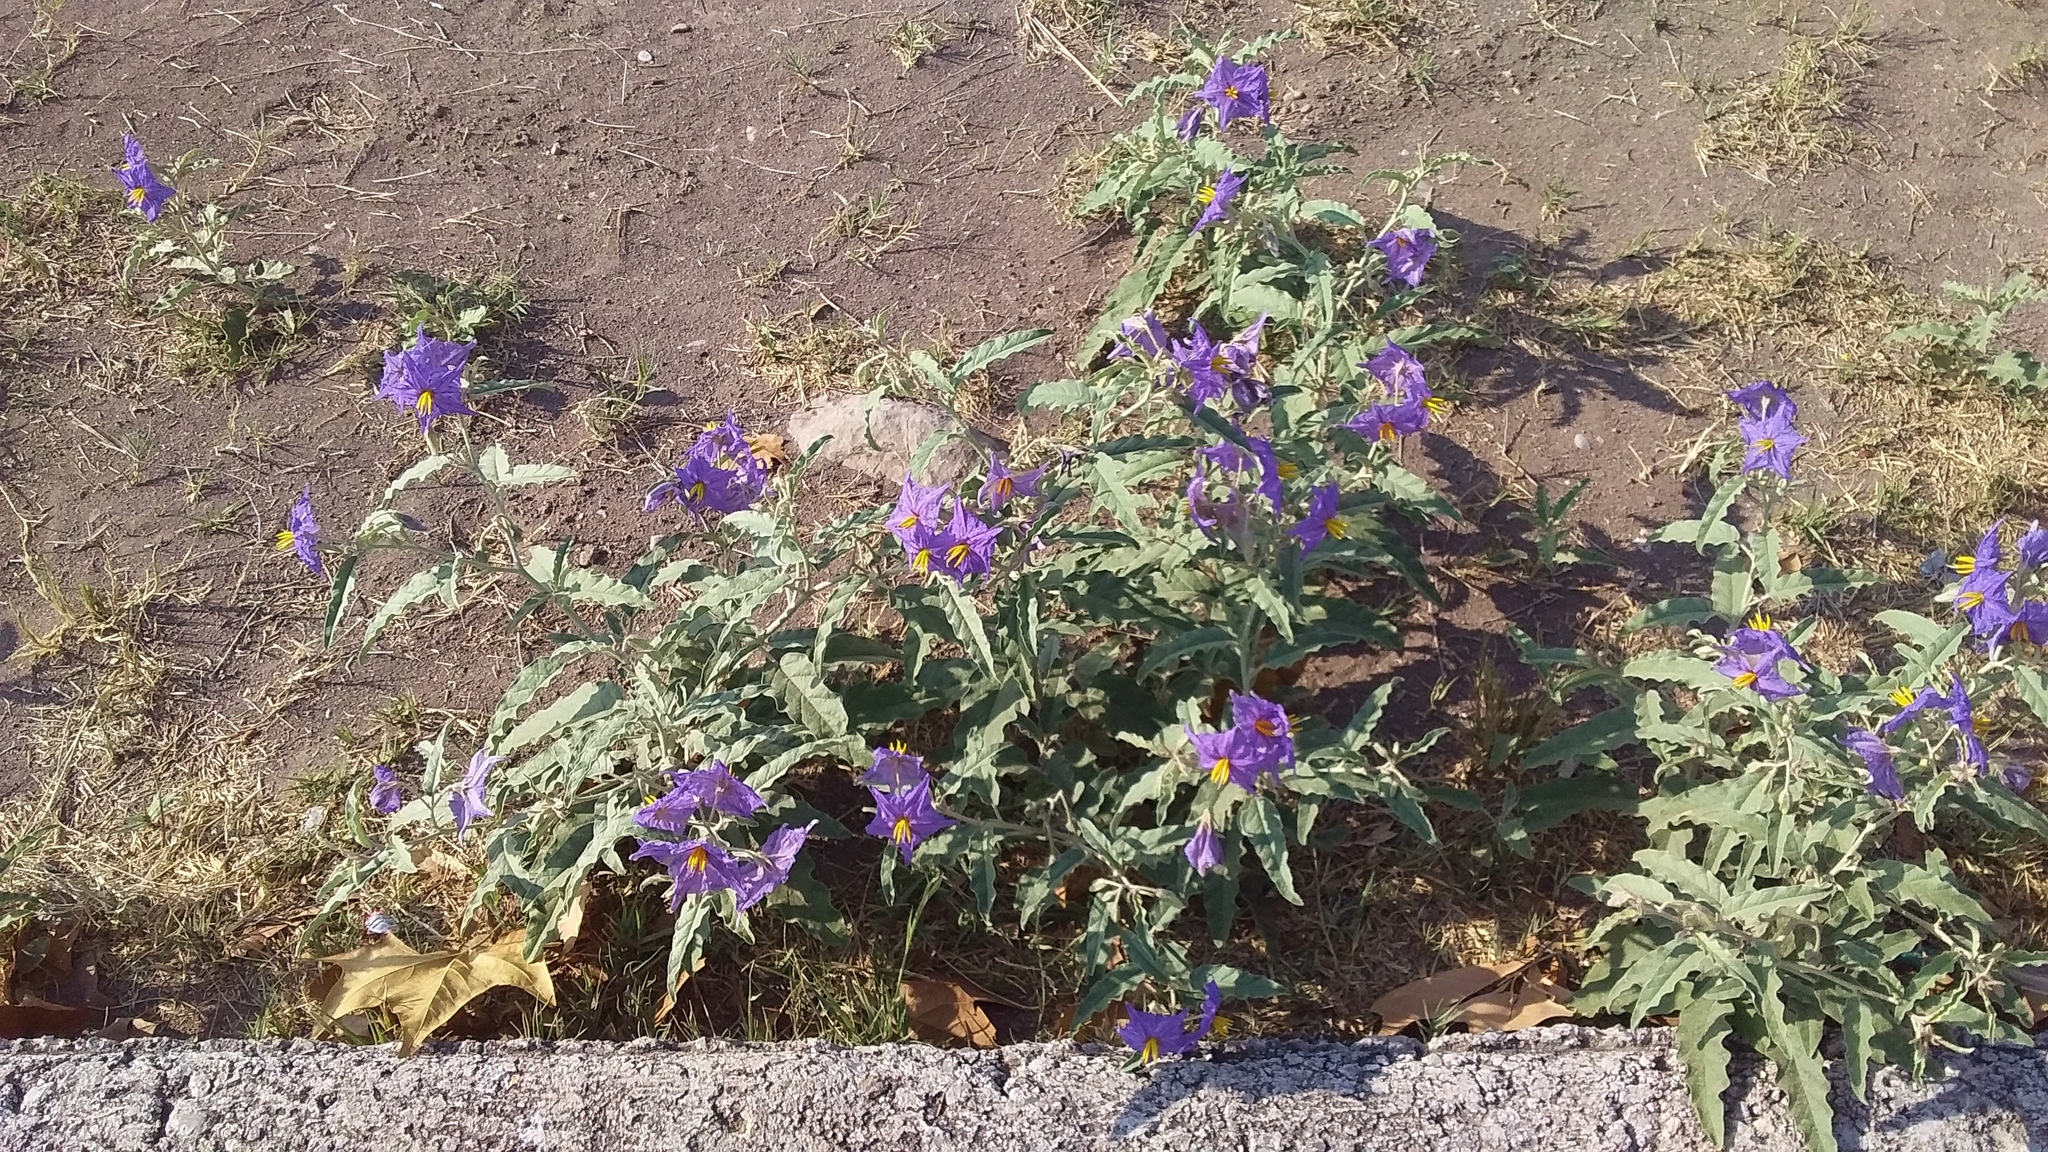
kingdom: Plantae
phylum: Tracheophyta
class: Magnoliopsida
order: Solanales
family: Solanaceae
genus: Solanum
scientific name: Solanum elaeagnifolium
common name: Silverleaf nightshade
